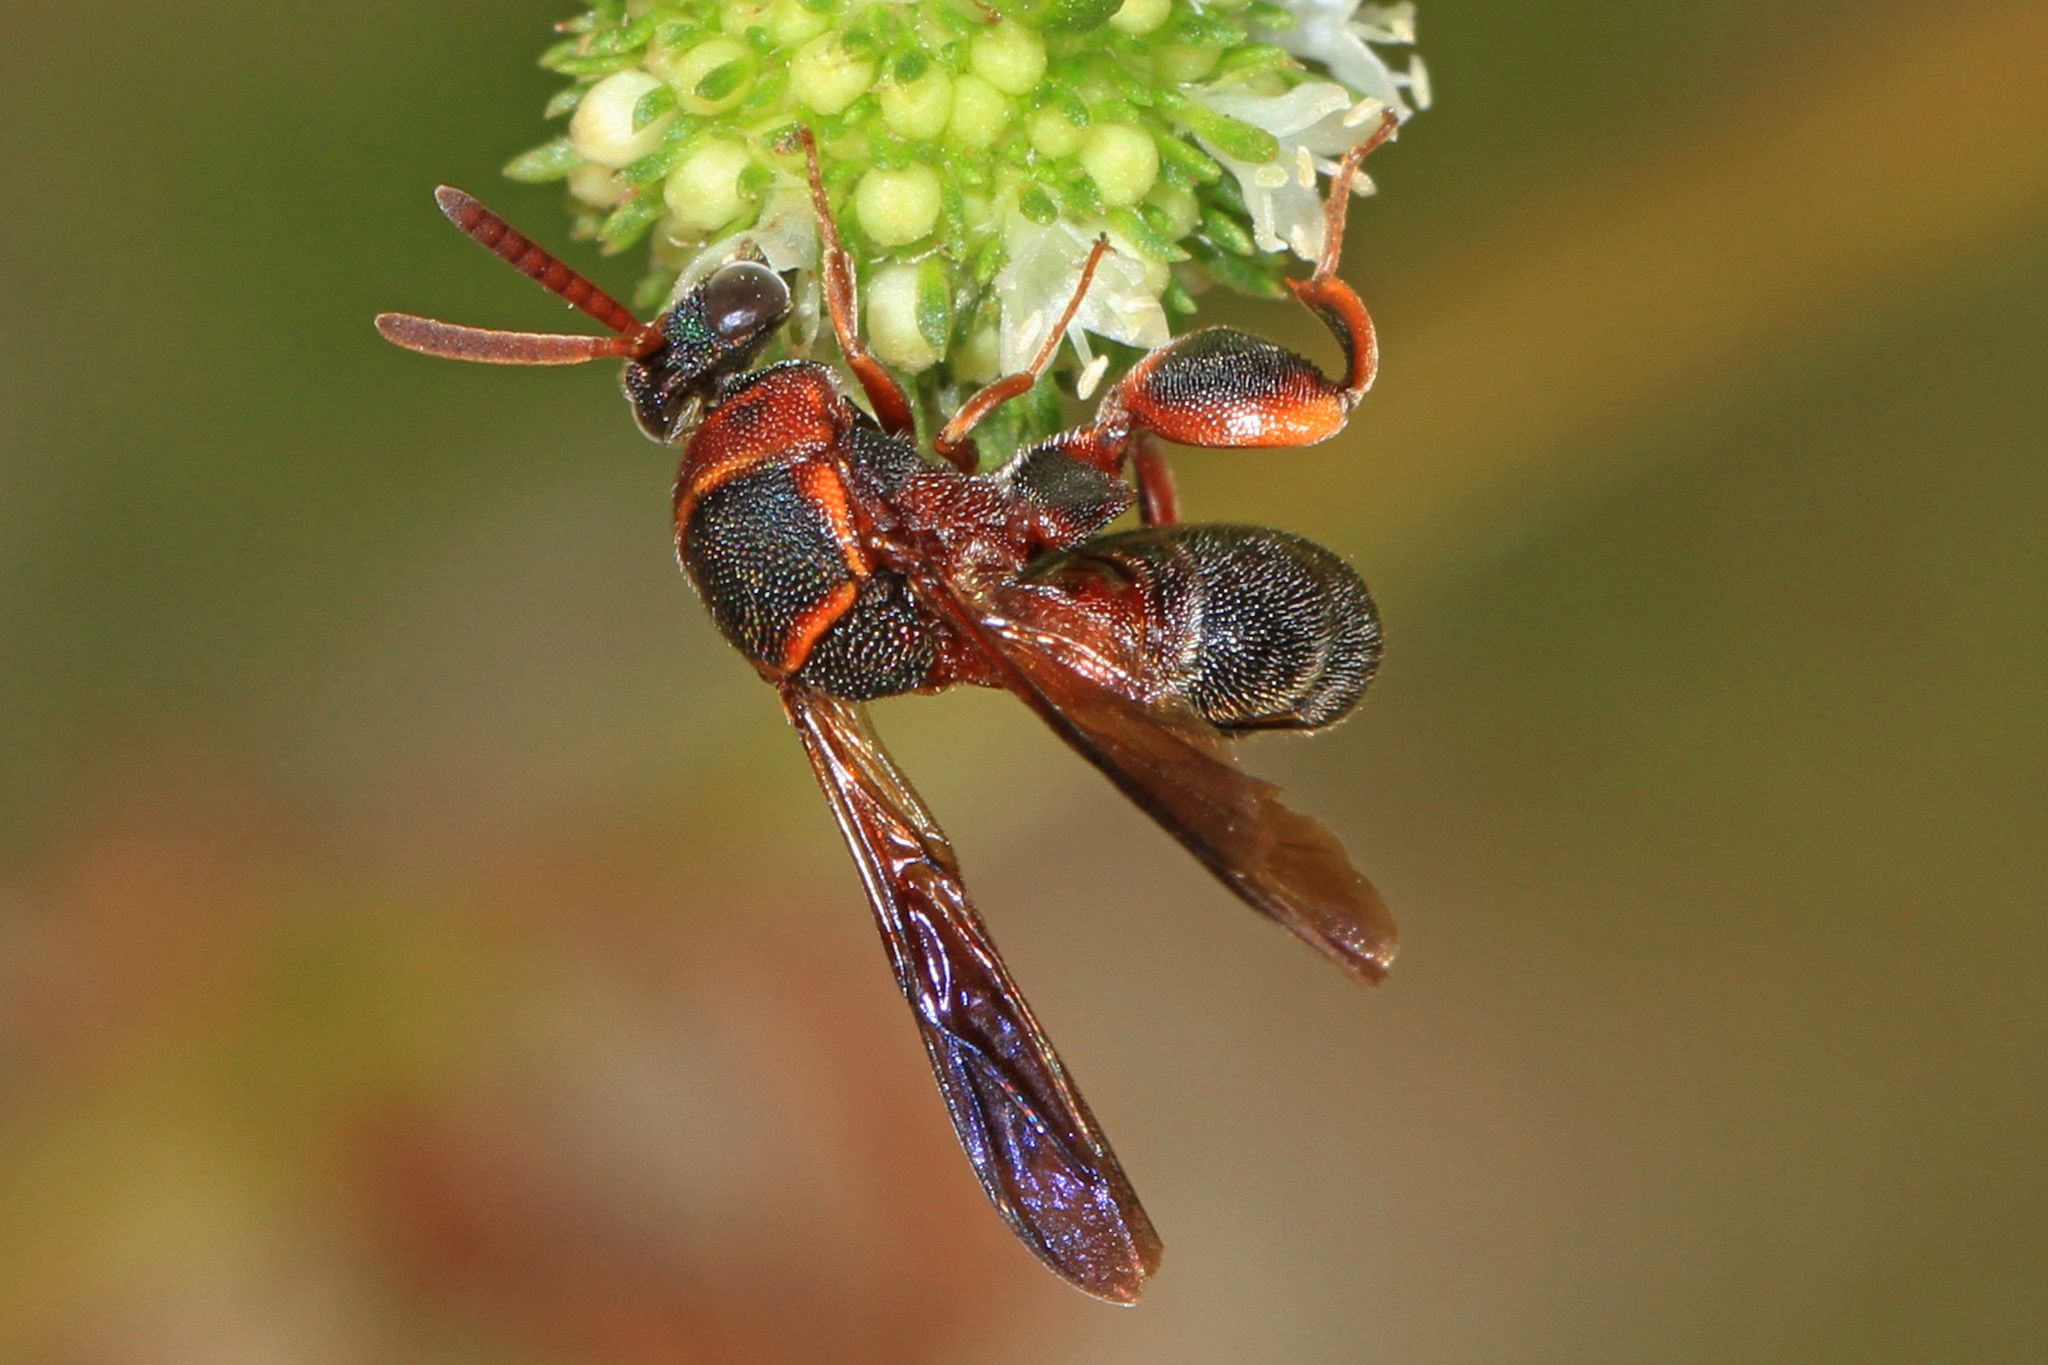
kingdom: Animalia
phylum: Arthropoda
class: Insecta
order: Hymenoptera
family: Leucospidae
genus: Leucospis
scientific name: Leucospis robertsoni
